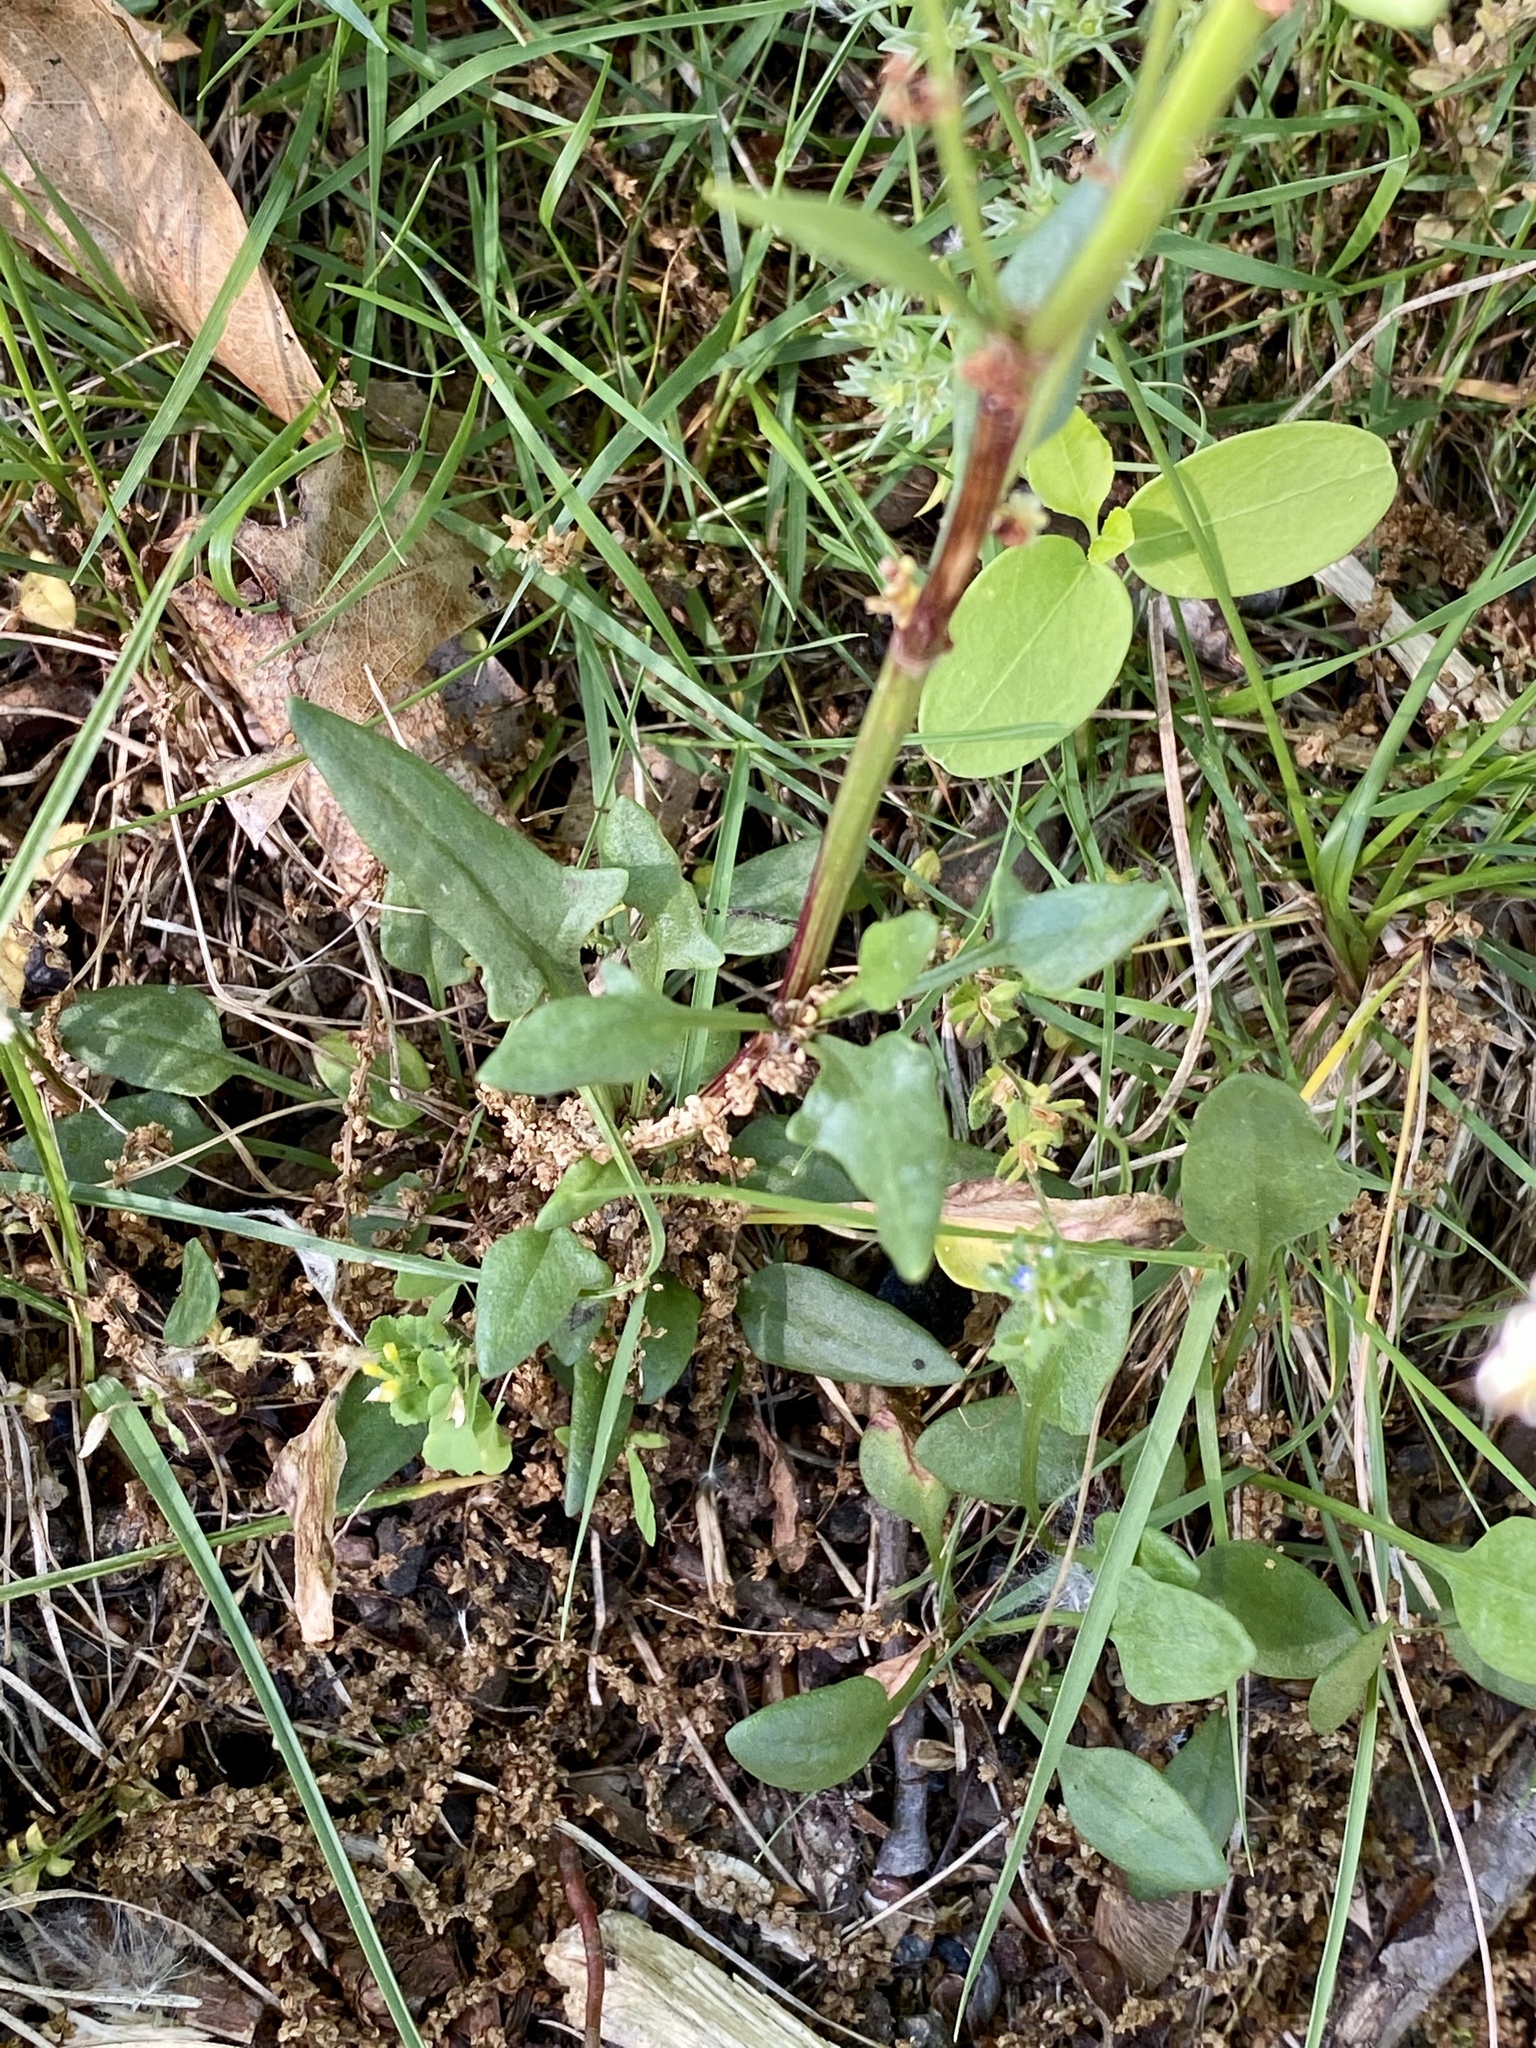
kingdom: Plantae
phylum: Tracheophyta
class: Magnoliopsida
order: Caryophyllales
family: Polygonaceae
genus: Rumex
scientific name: Rumex acetosella
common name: Common sheep sorrel
